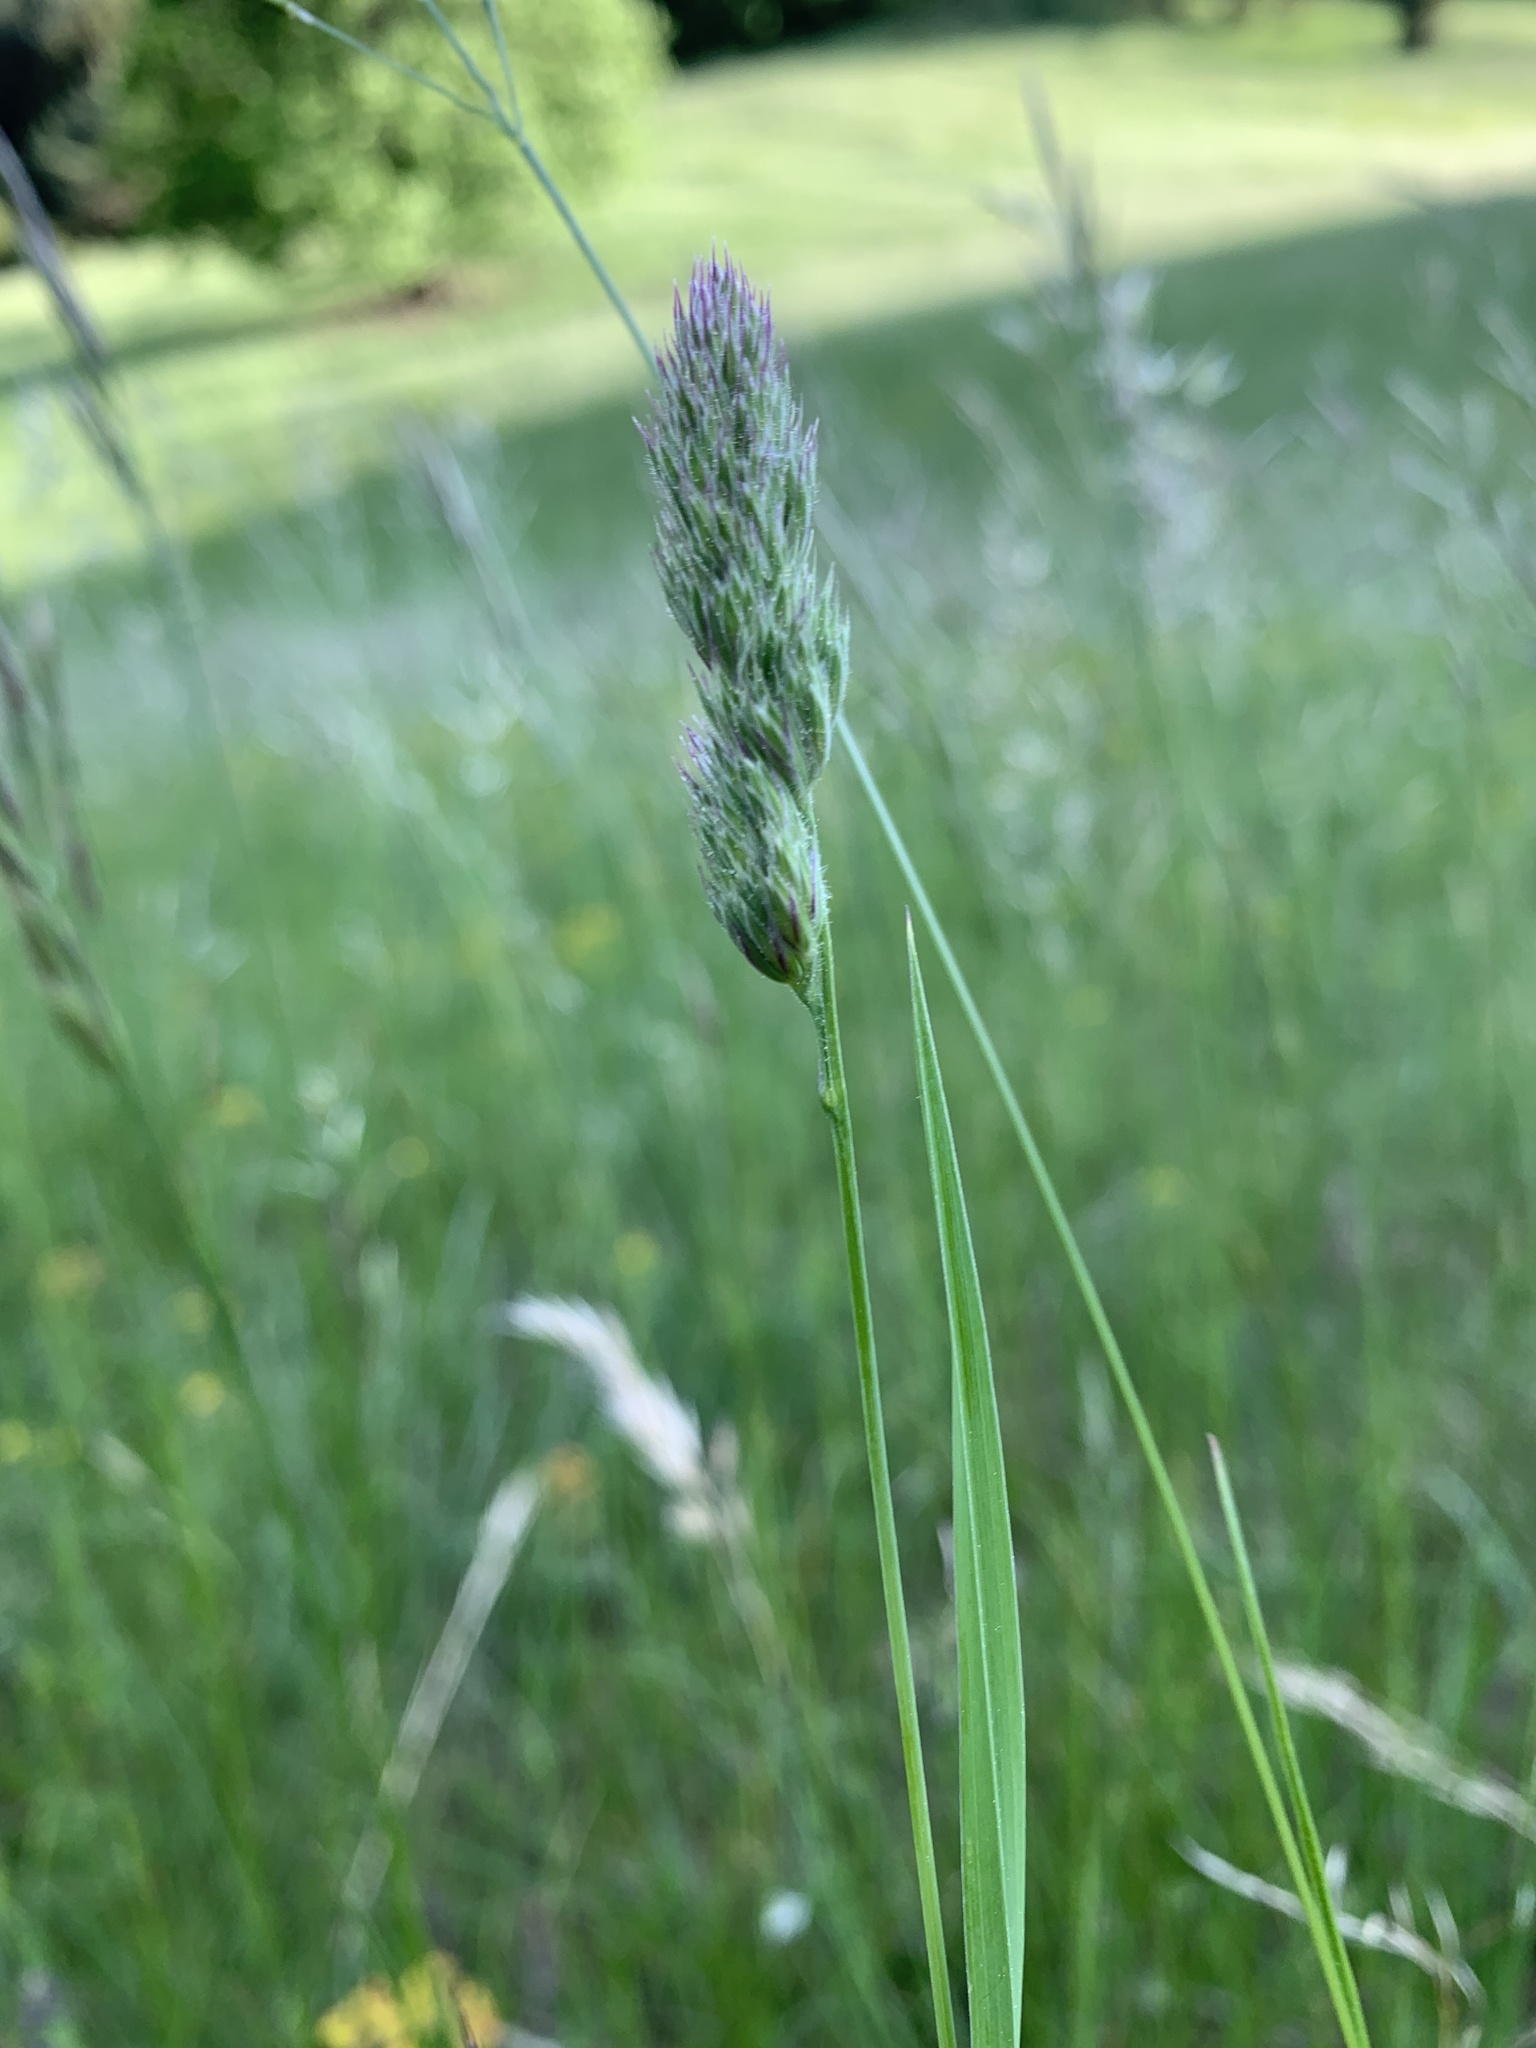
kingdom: Plantae
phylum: Tracheophyta
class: Liliopsida
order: Poales
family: Poaceae
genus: Dactylis
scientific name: Dactylis glomerata
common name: Orchardgrass
